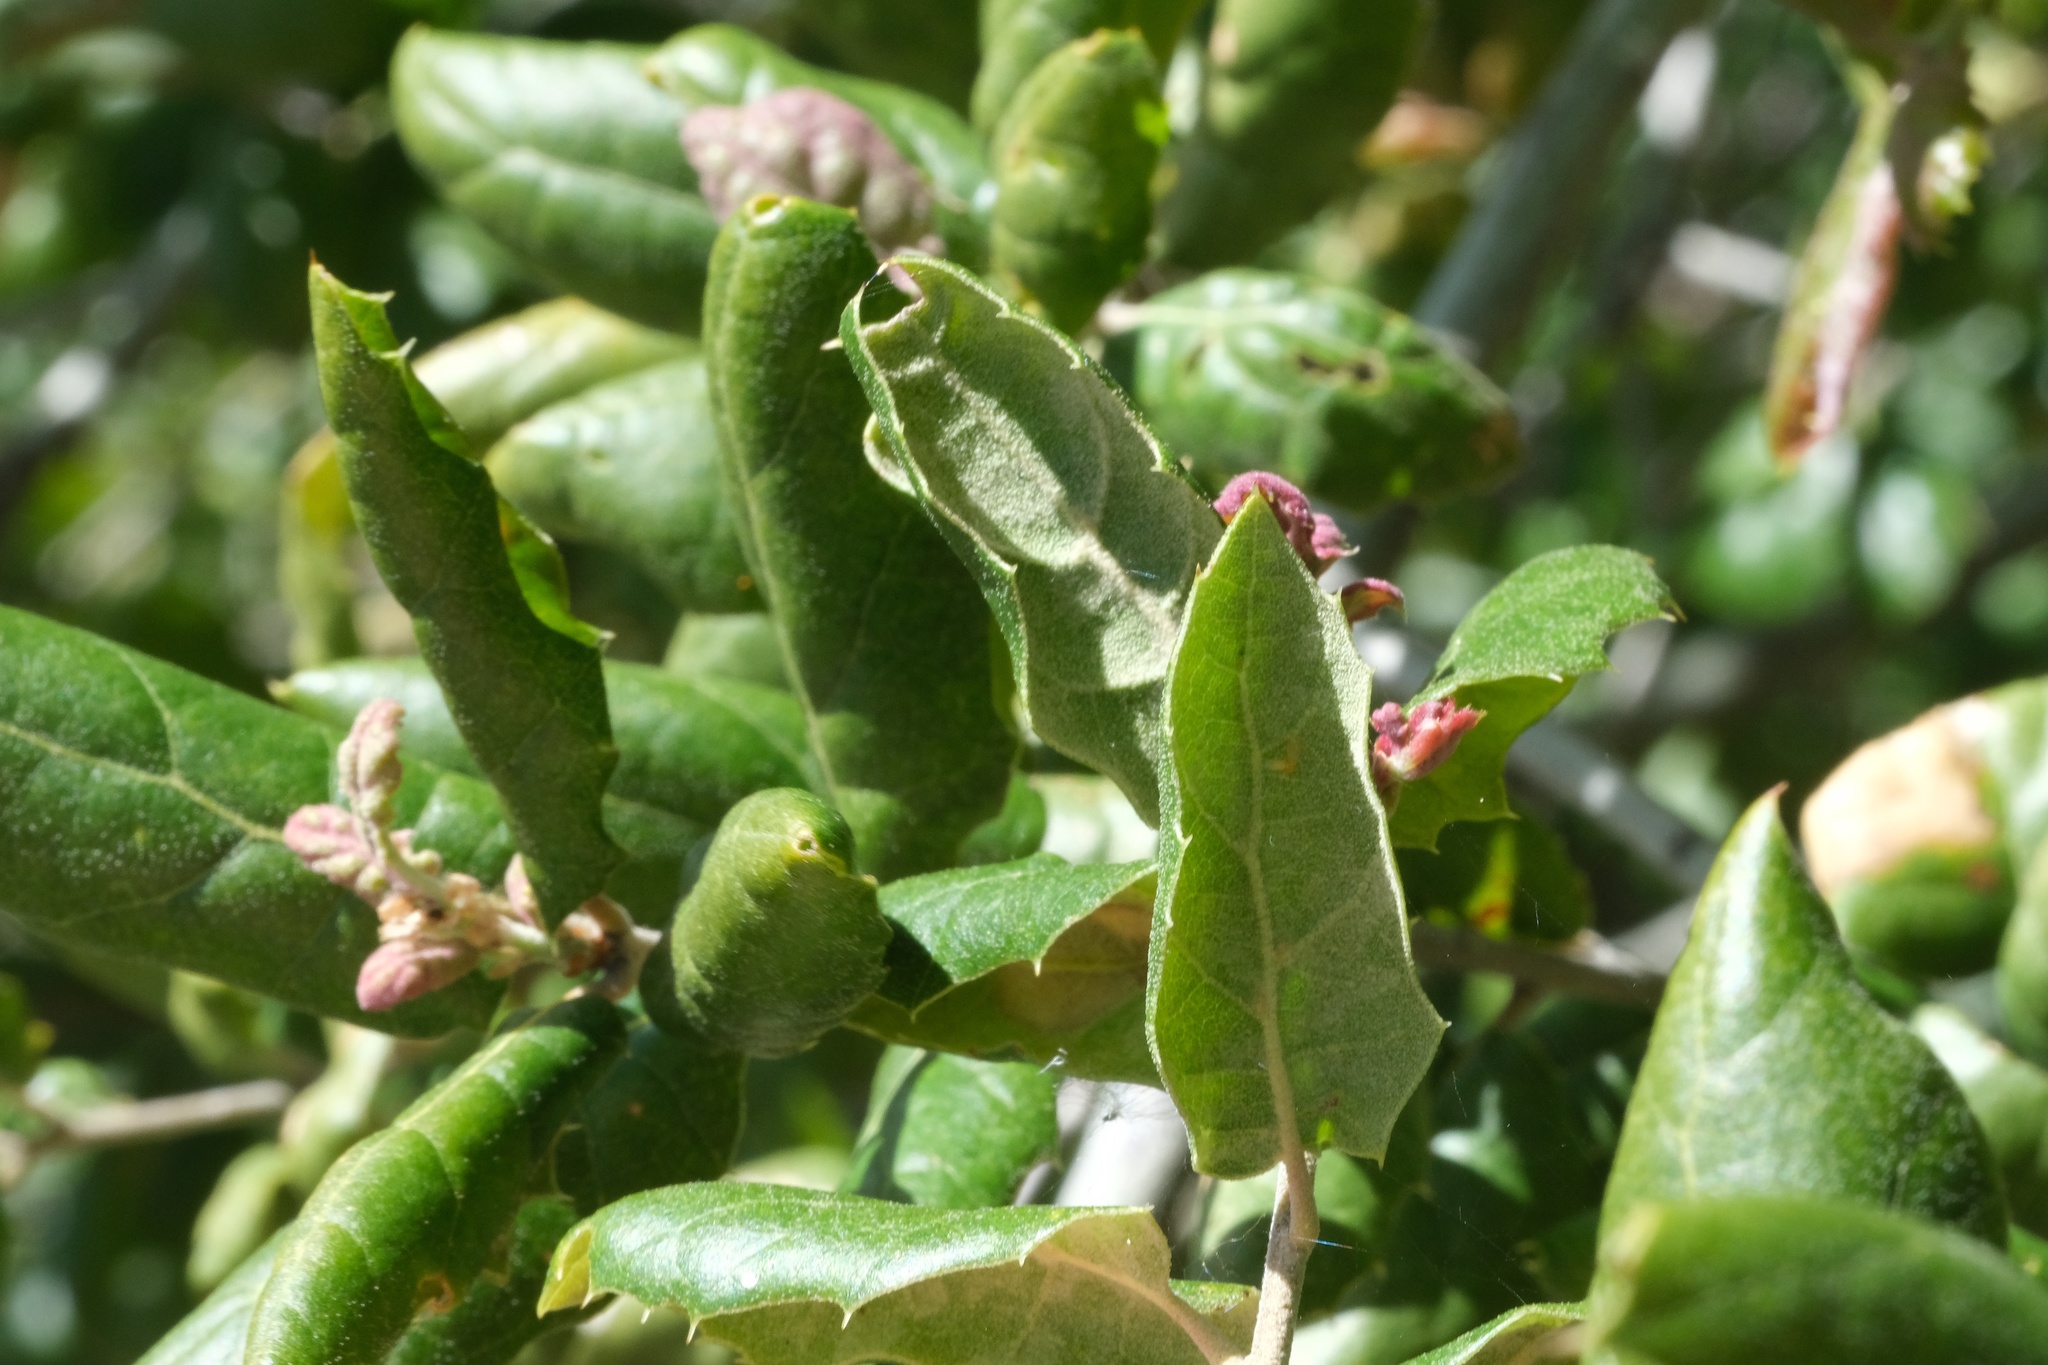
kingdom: Plantae
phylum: Tracheophyta
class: Magnoliopsida
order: Fagales
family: Fagaceae
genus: Quercus
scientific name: Quercus agrifolia
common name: California live oak
